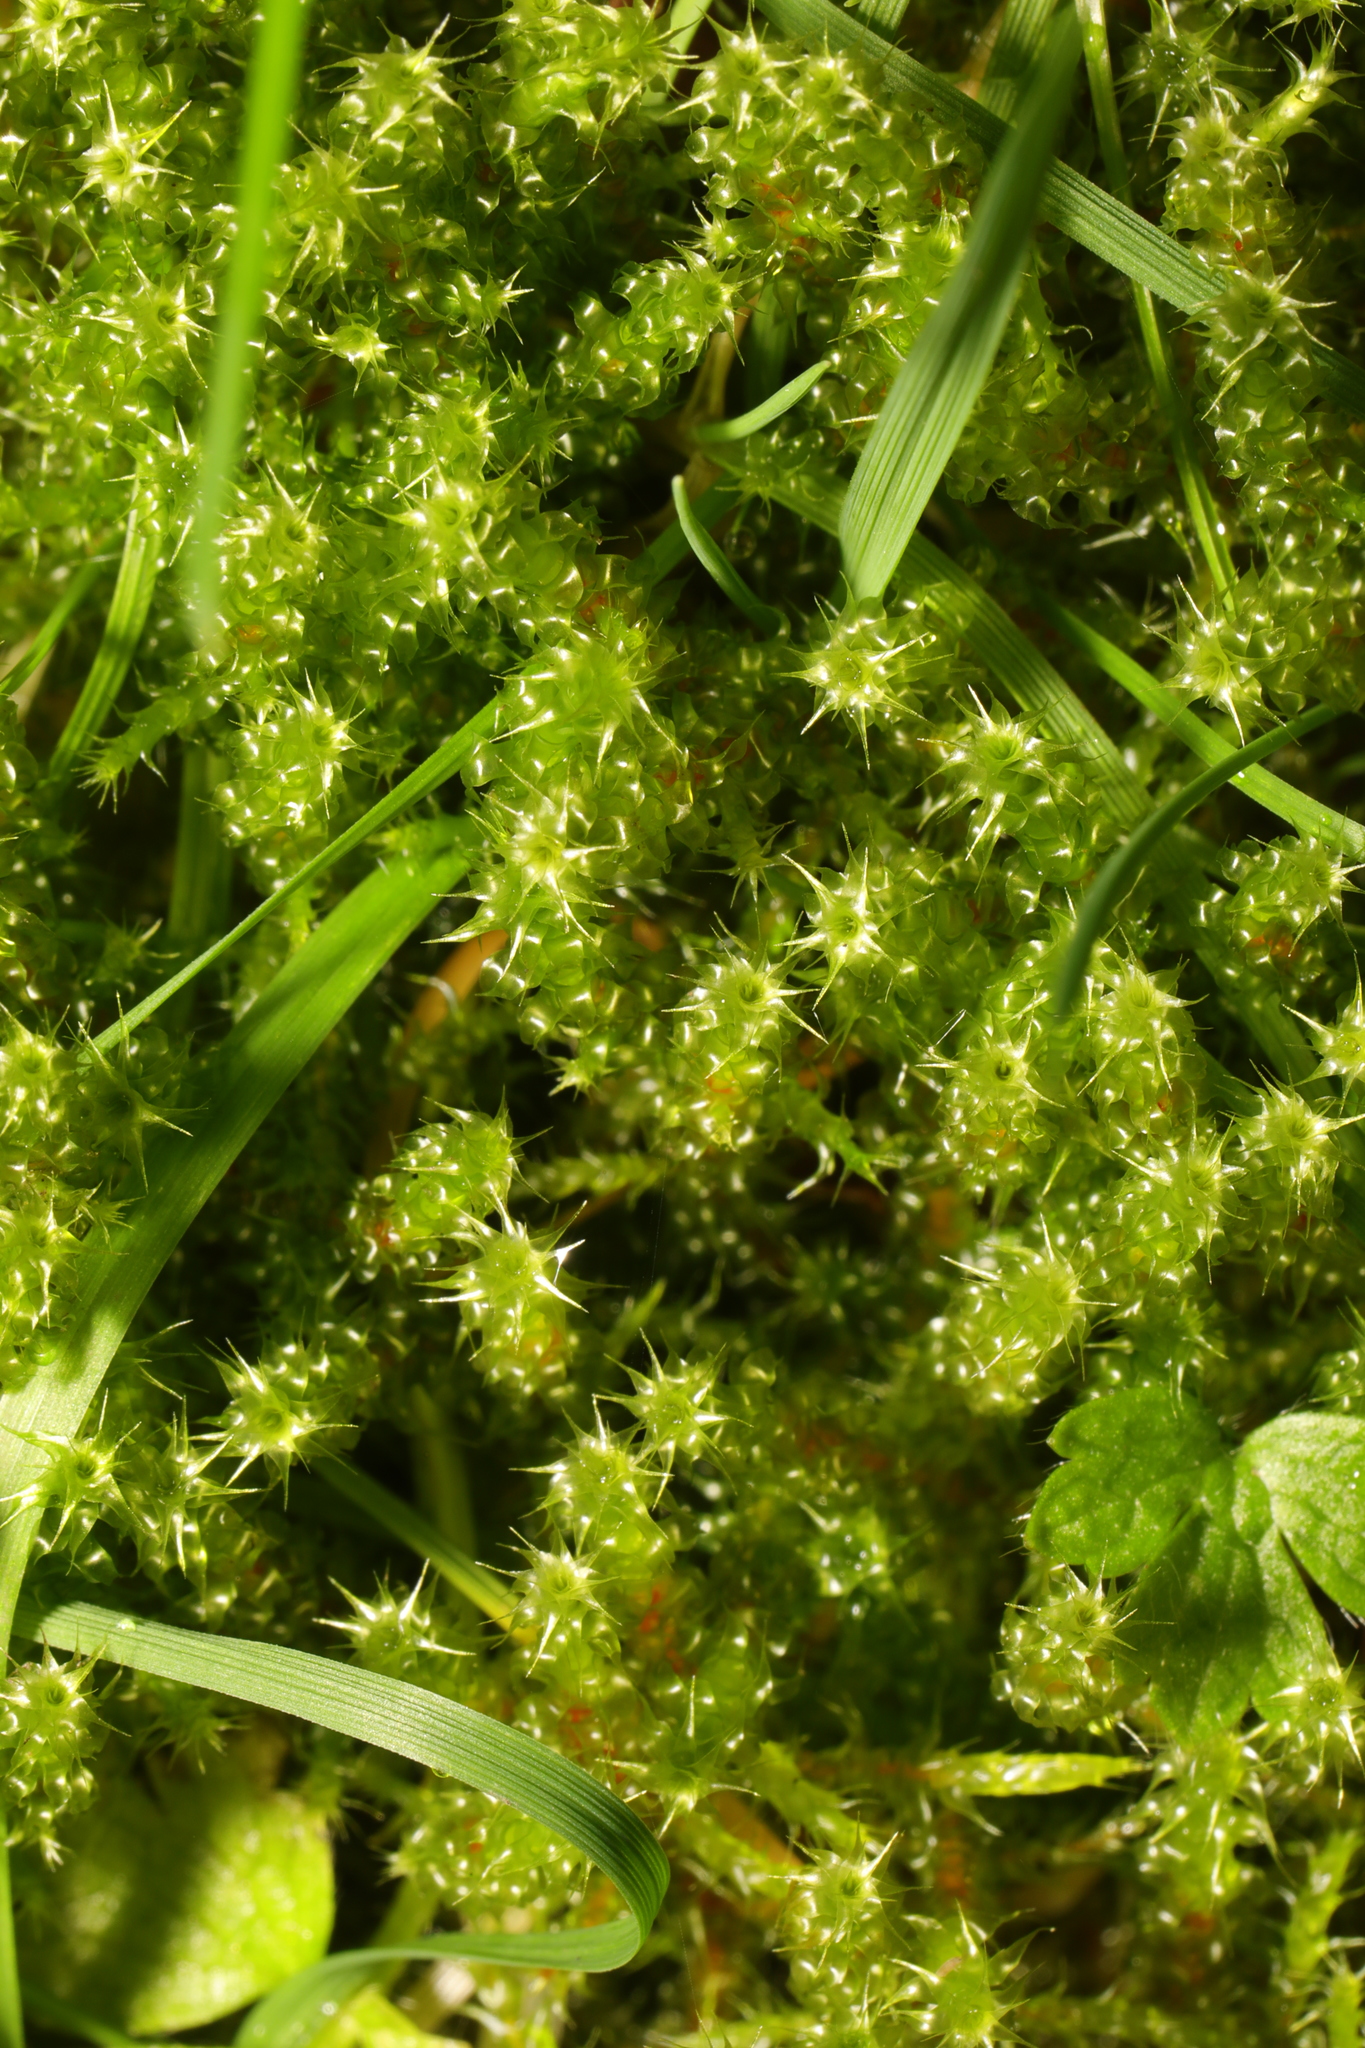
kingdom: Plantae
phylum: Bryophyta
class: Bryopsida
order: Hypnales
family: Hylocomiaceae
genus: Rhytidiadelphus
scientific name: Rhytidiadelphus squarrosus
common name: Springy turf-moss
